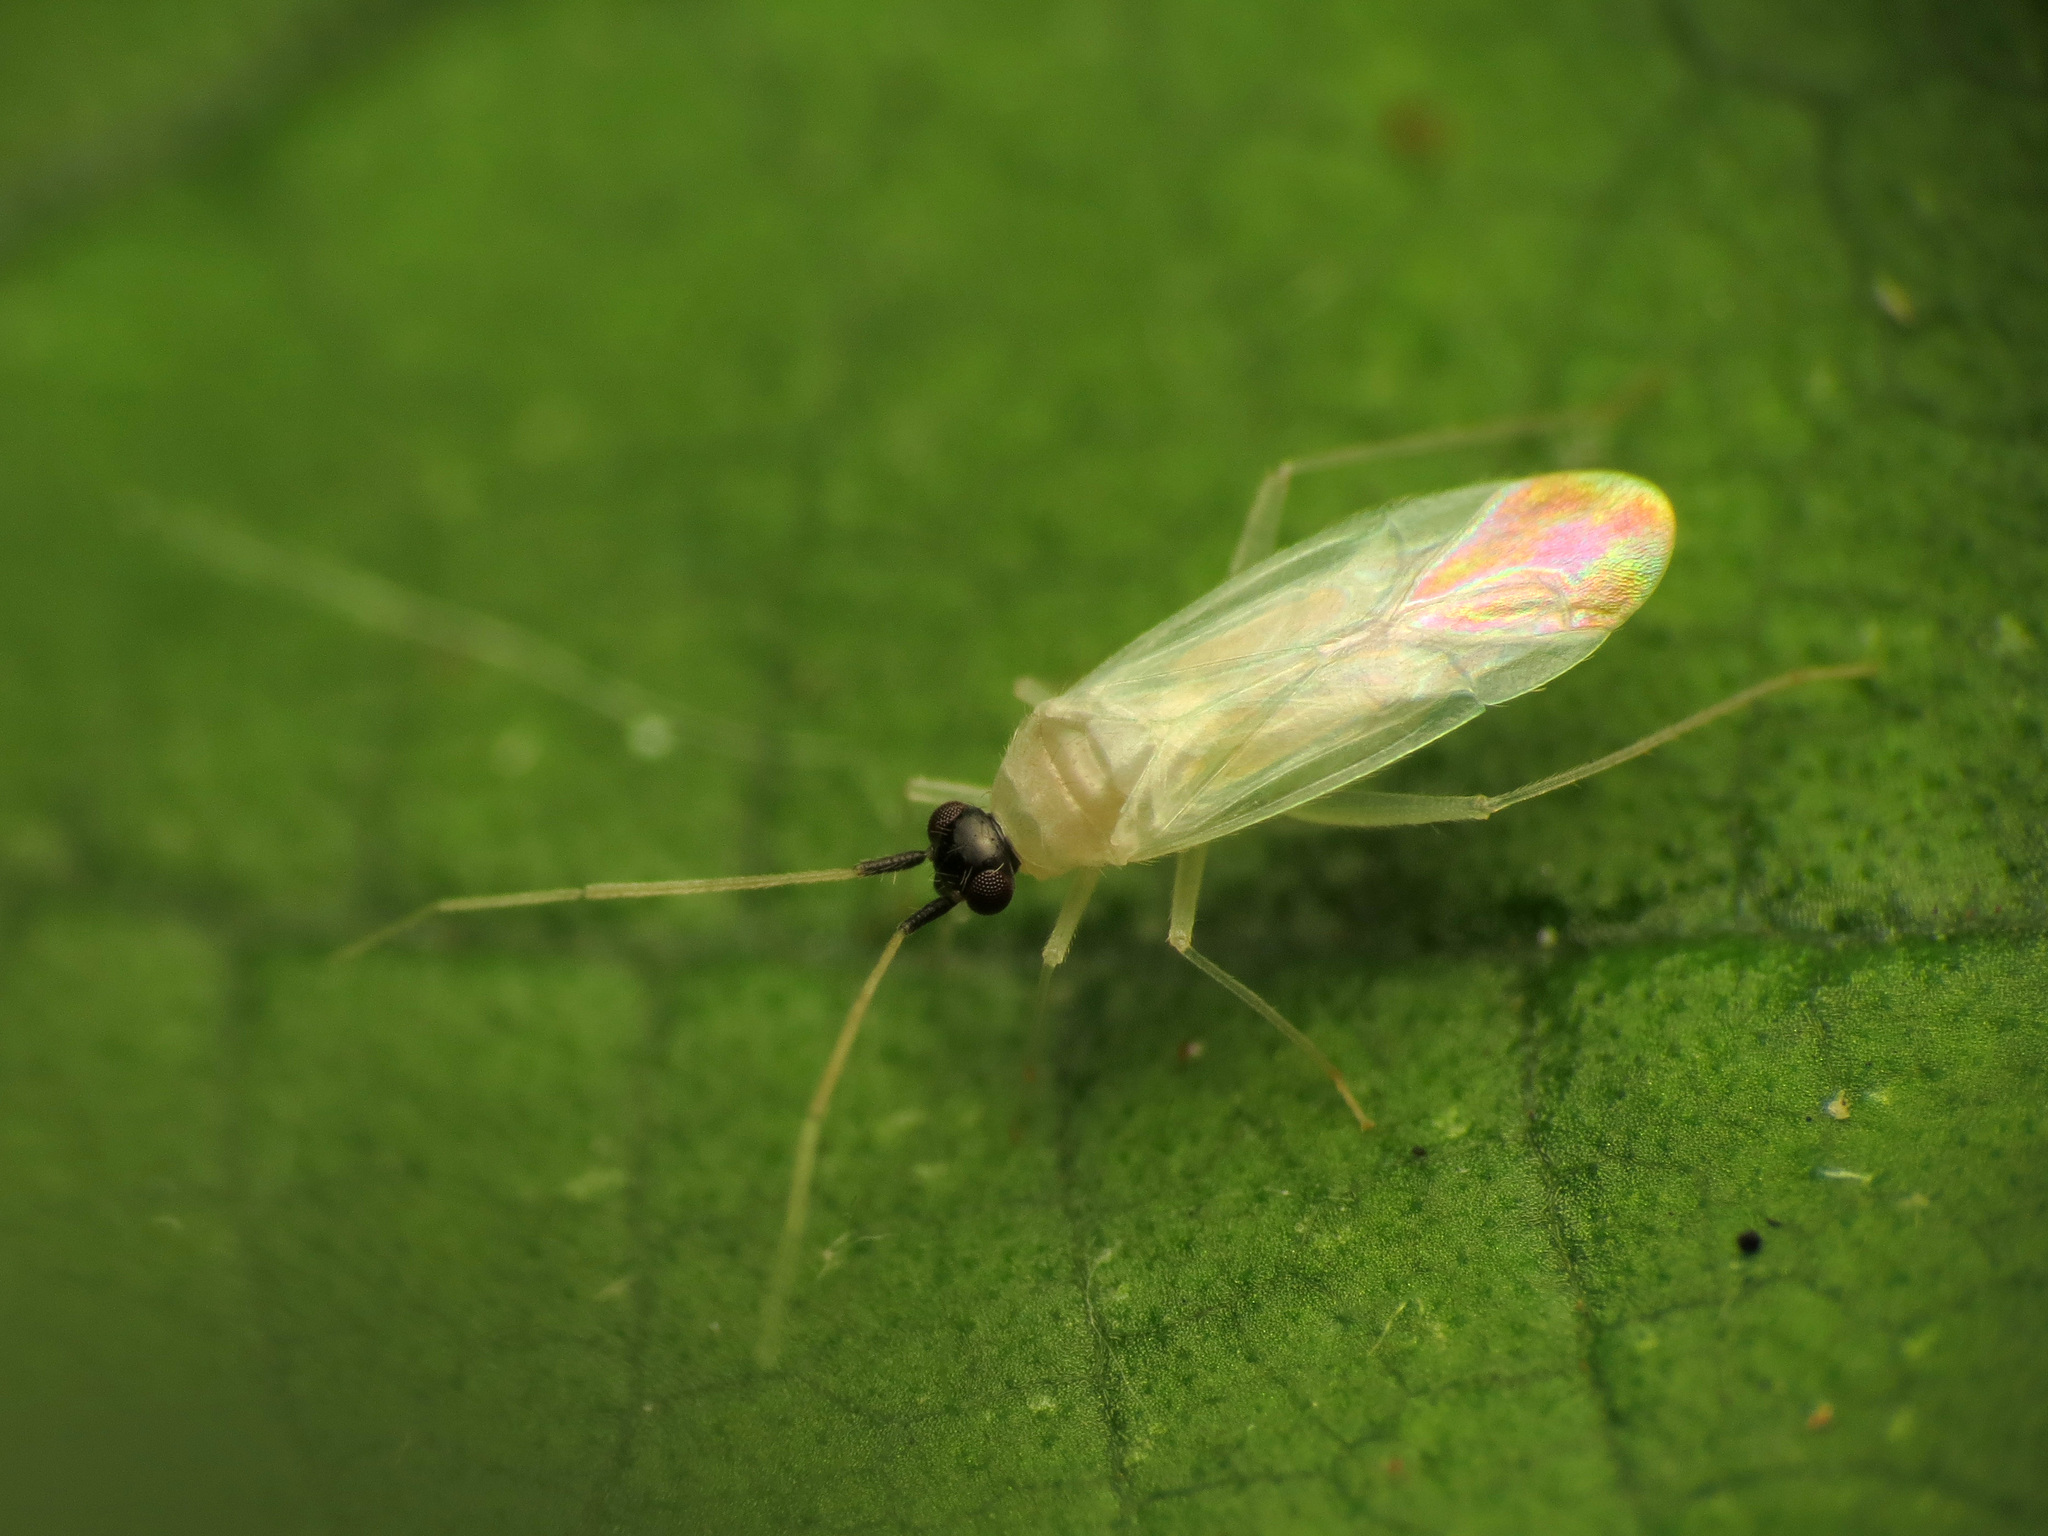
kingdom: Animalia
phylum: Arthropoda
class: Insecta
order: Hemiptera
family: Miridae
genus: Paraproba
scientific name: Paraproba capitata
